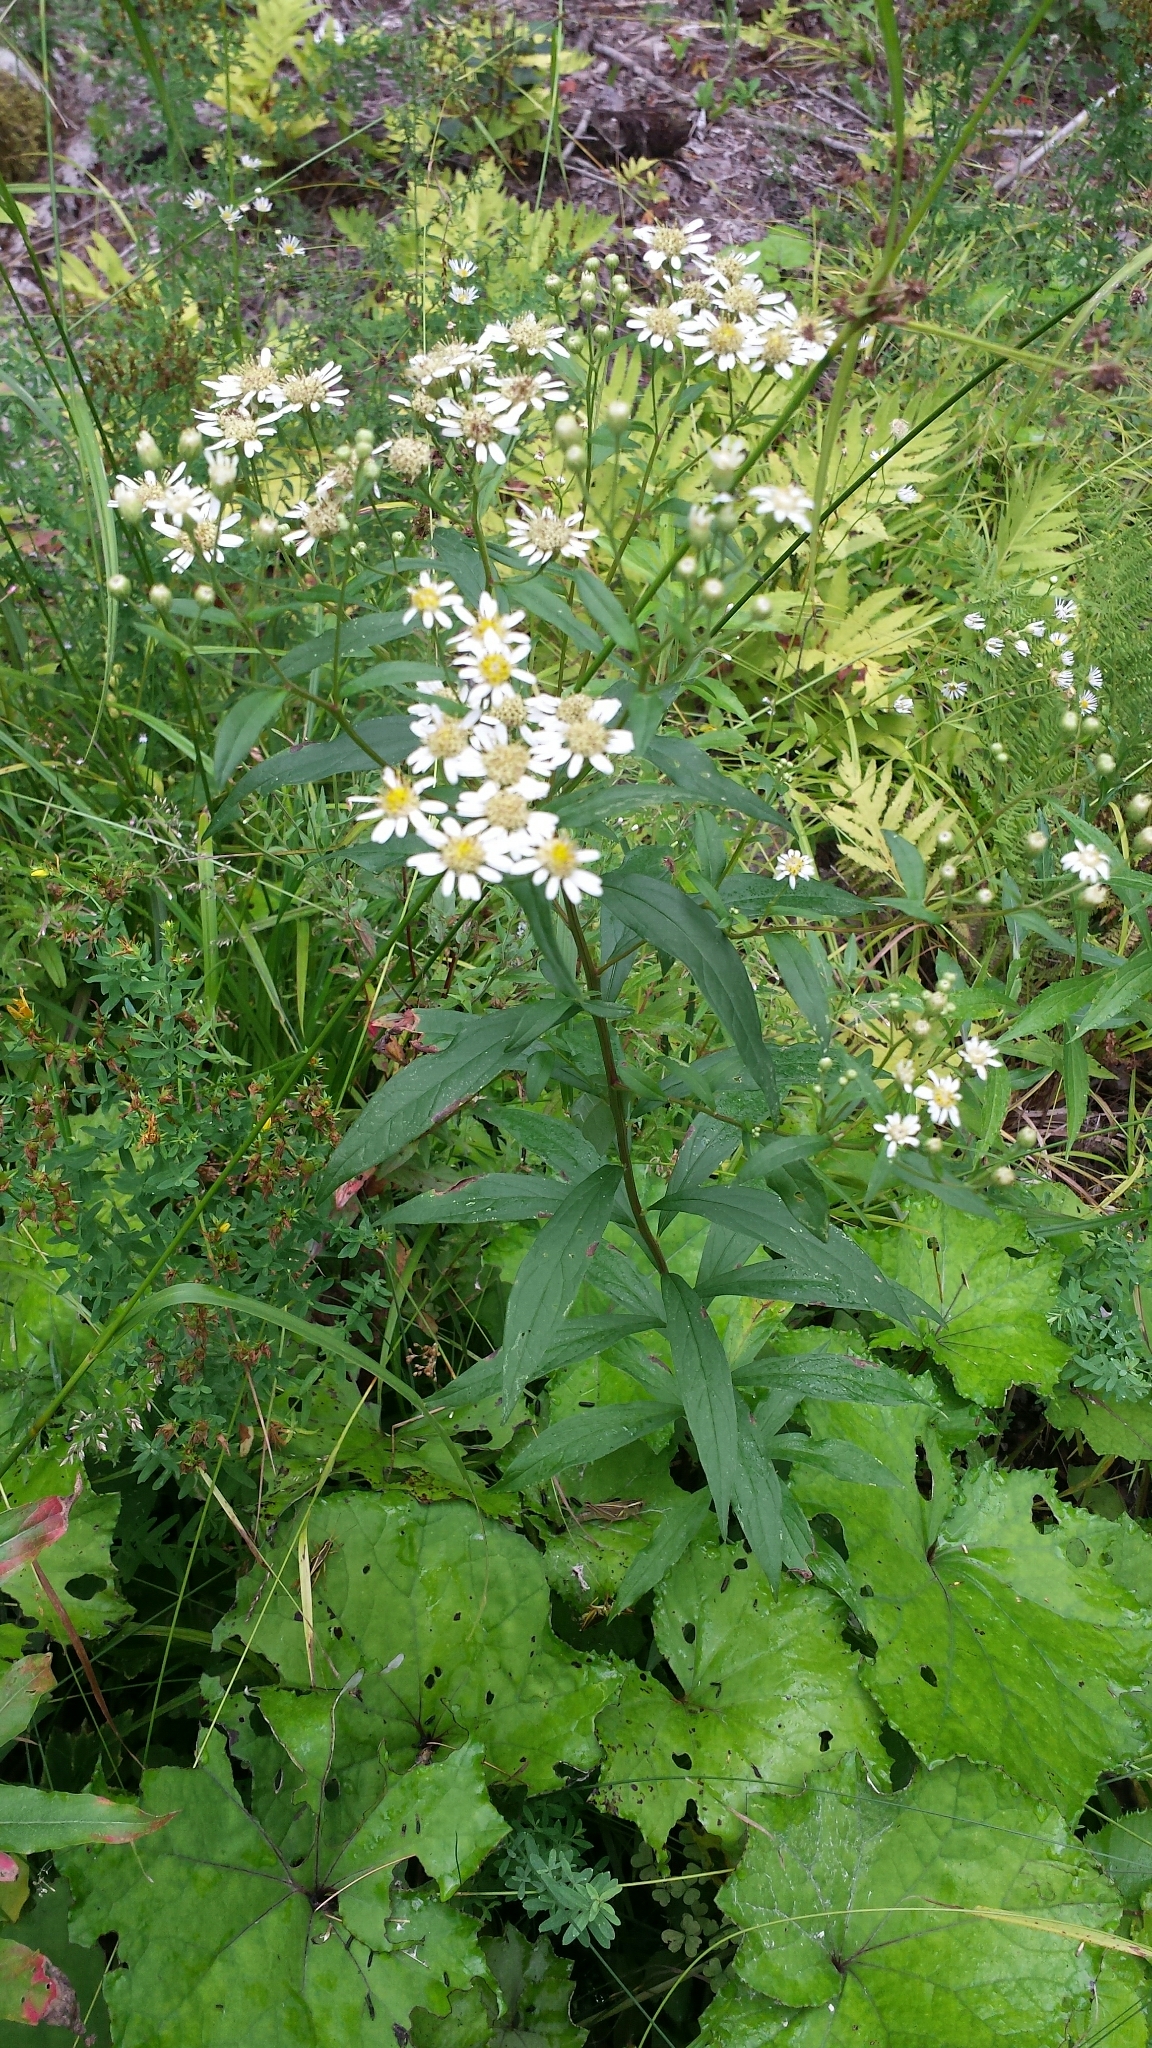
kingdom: Plantae
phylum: Tracheophyta
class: Magnoliopsida
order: Asterales
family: Asteraceae
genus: Doellingeria
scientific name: Doellingeria umbellata
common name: Flat-top white aster
